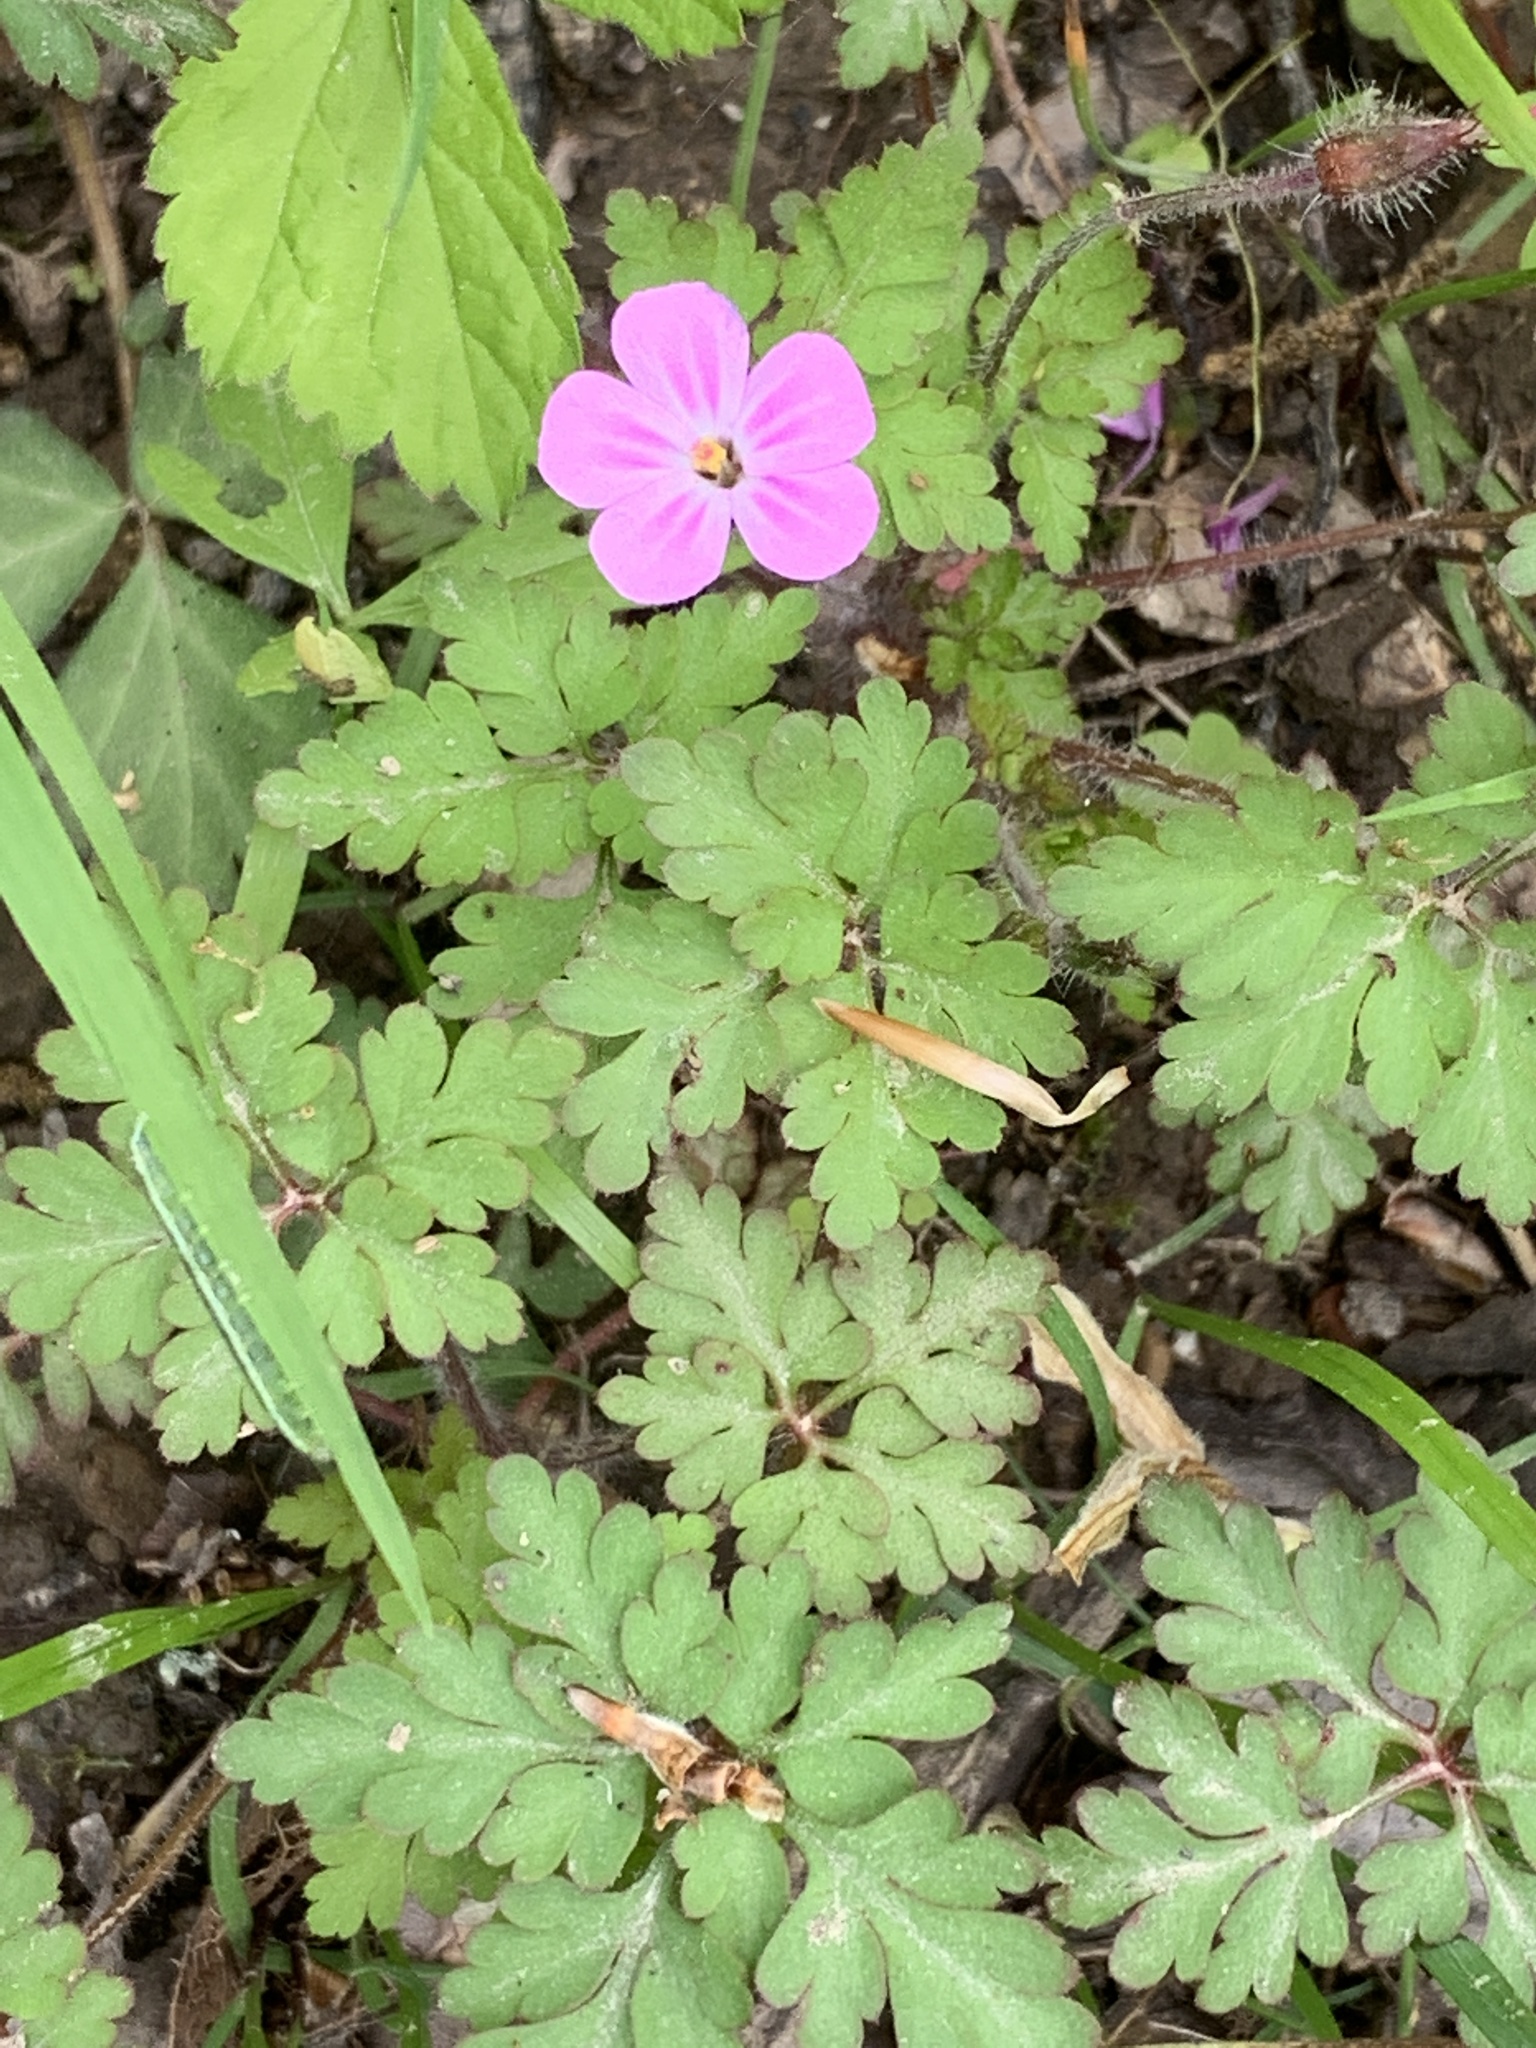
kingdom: Plantae
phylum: Tracheophyta
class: Magnoliopsida
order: Geraniales
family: Geraniaceae
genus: Geranium
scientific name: Geranium robertianum
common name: Herb-robert
